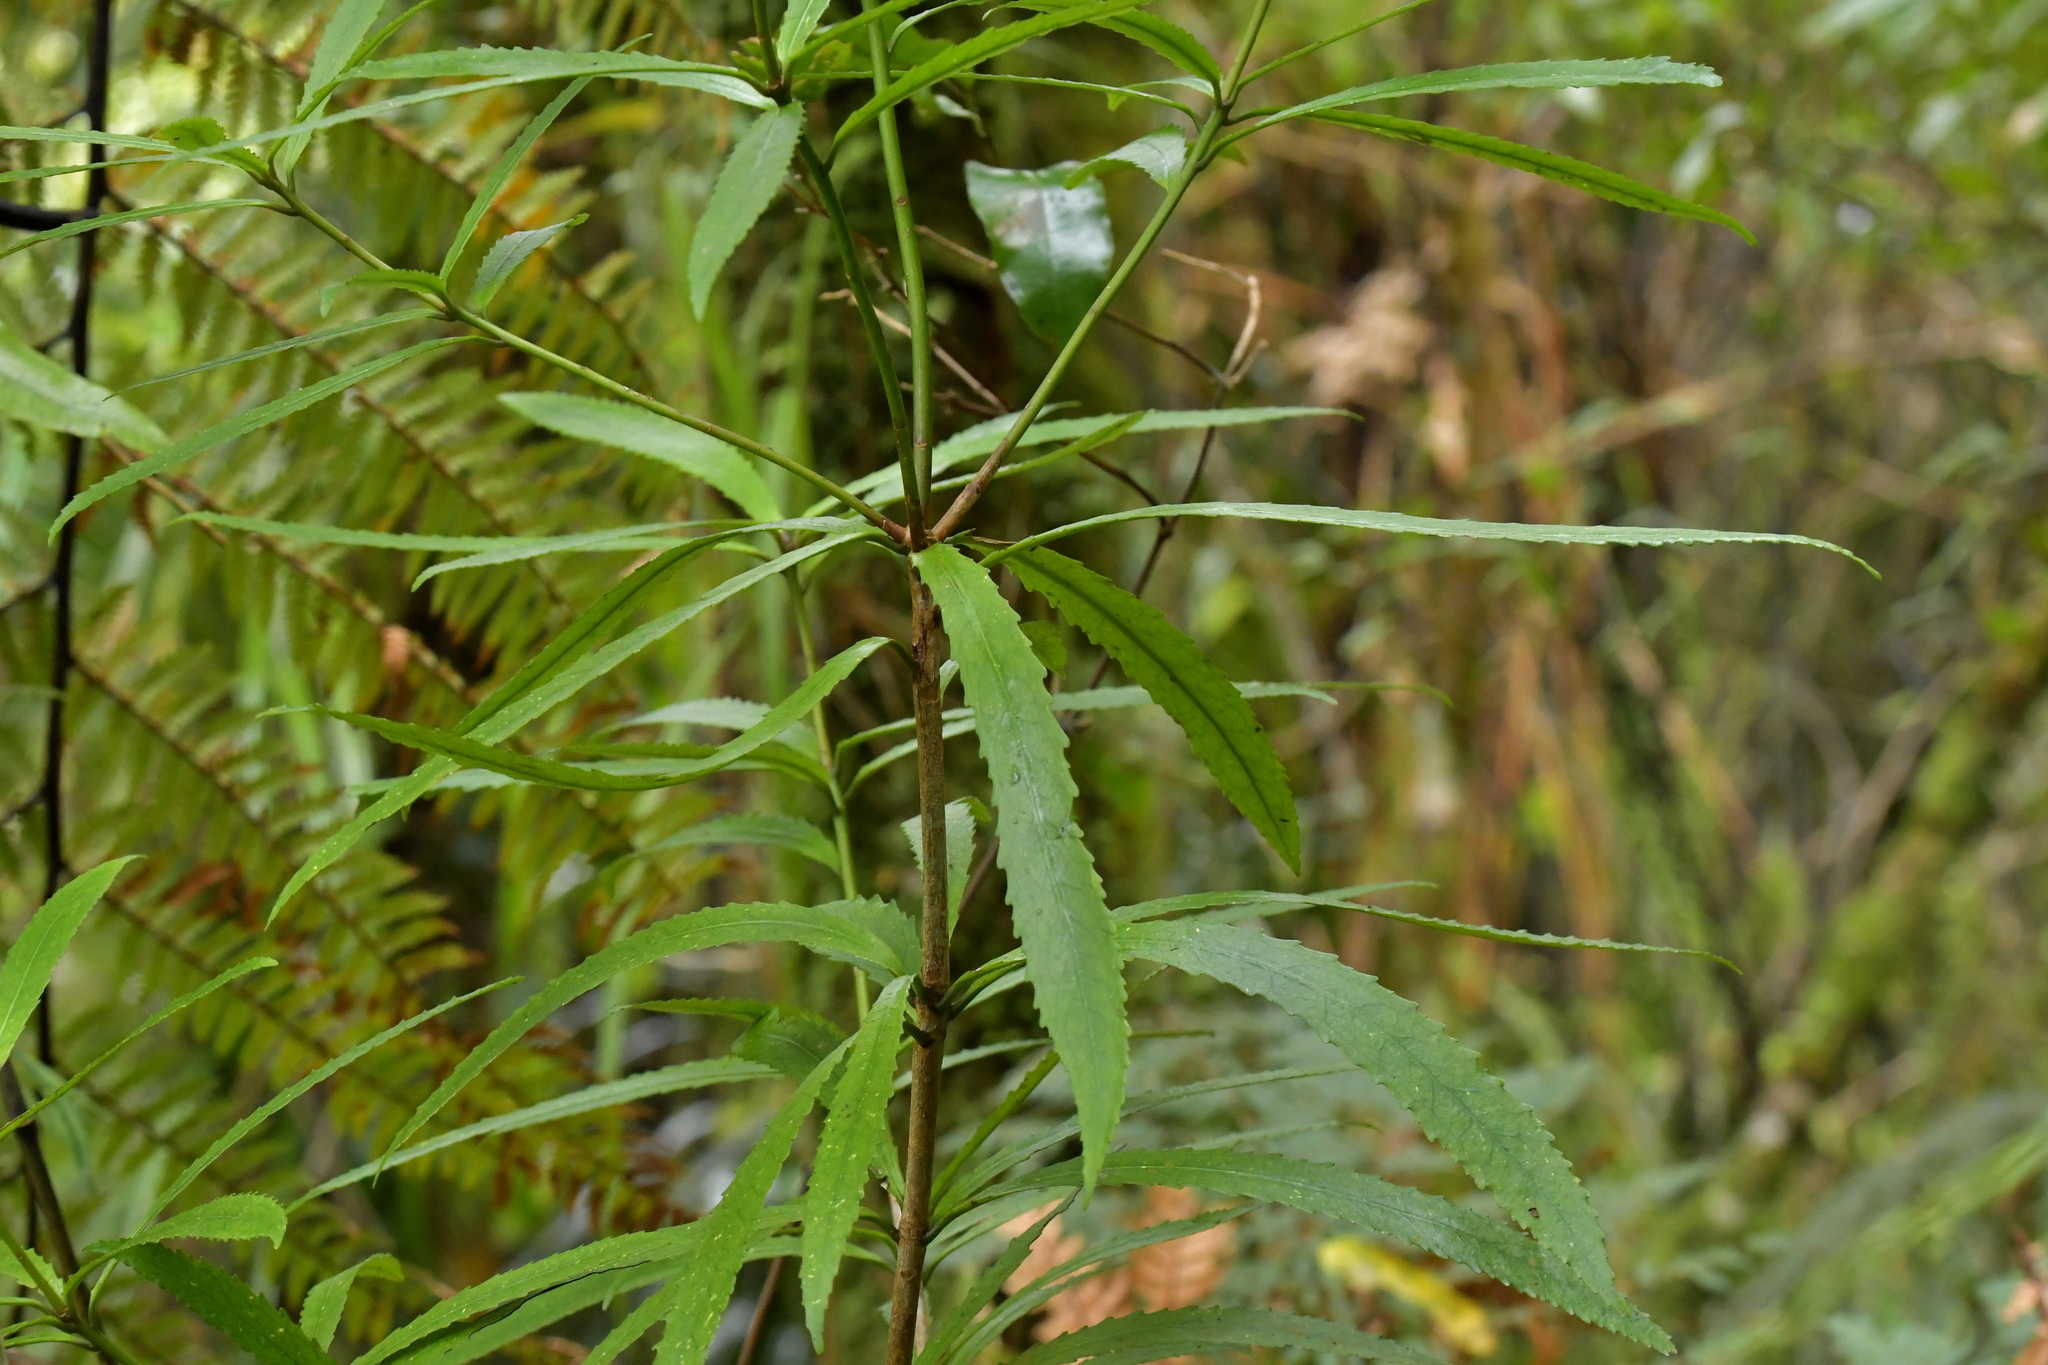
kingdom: Plantae
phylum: Tracheophyta
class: Magnoliopsida
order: Crossosomatales
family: Ixerbaceae
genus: Ixerba
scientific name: Ixerba brexioides
